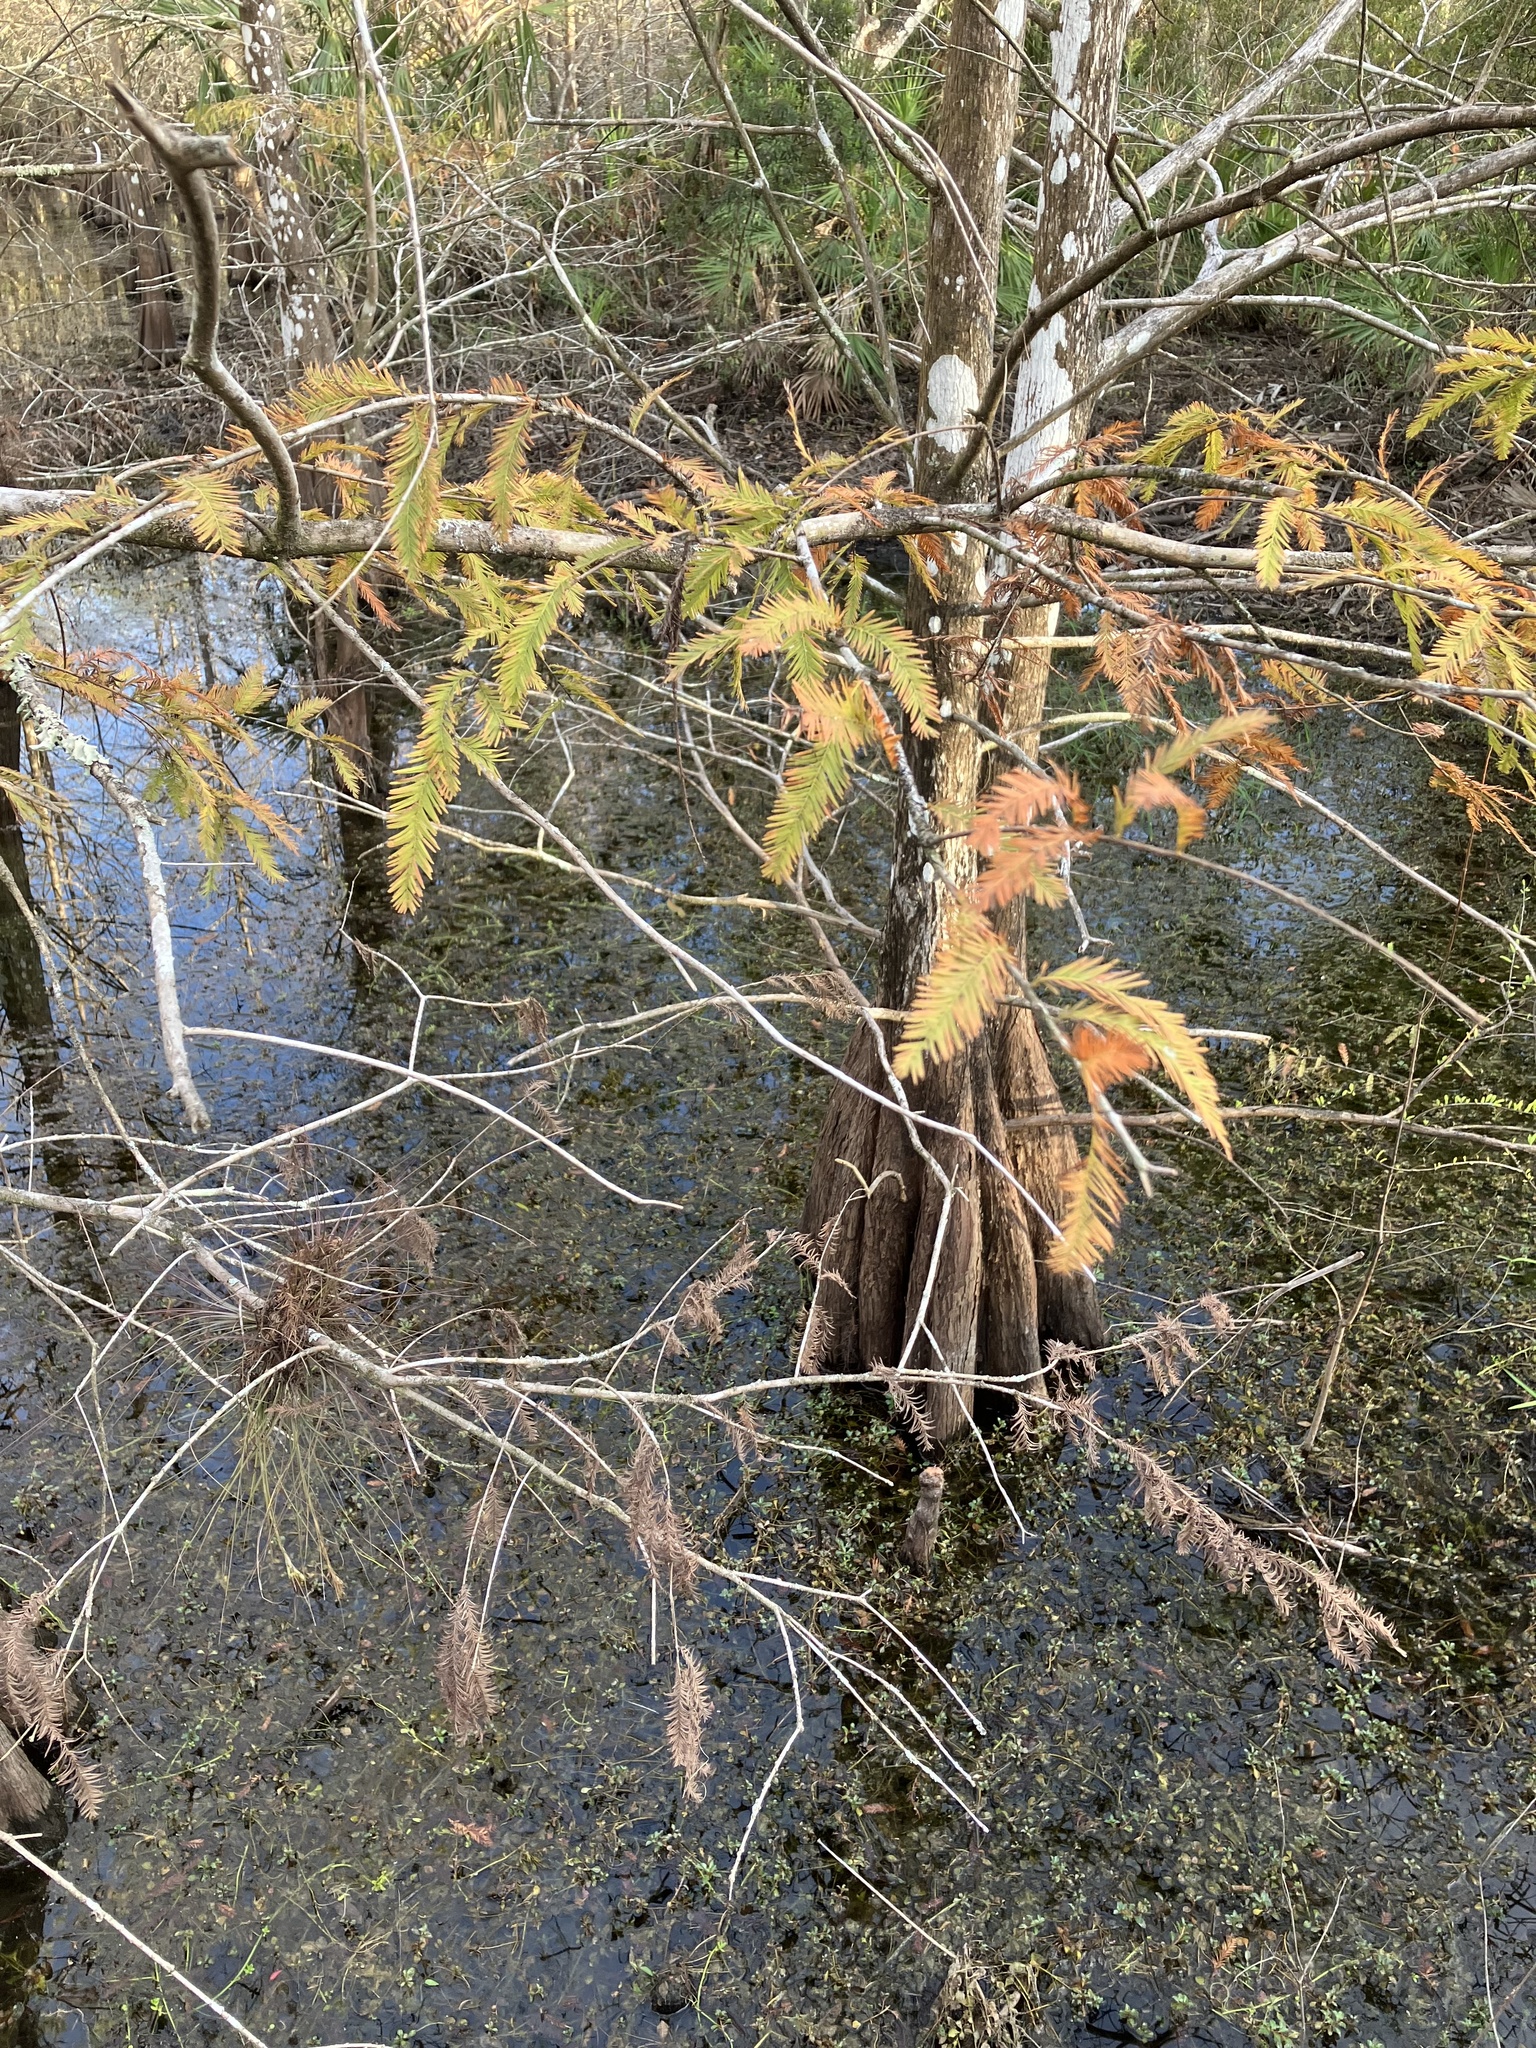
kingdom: Plantae
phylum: Tracheophyta
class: Pinopsida
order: Pinales
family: Cupressaceae
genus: Taxodium
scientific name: Taxodium distichum
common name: Bald cypress
